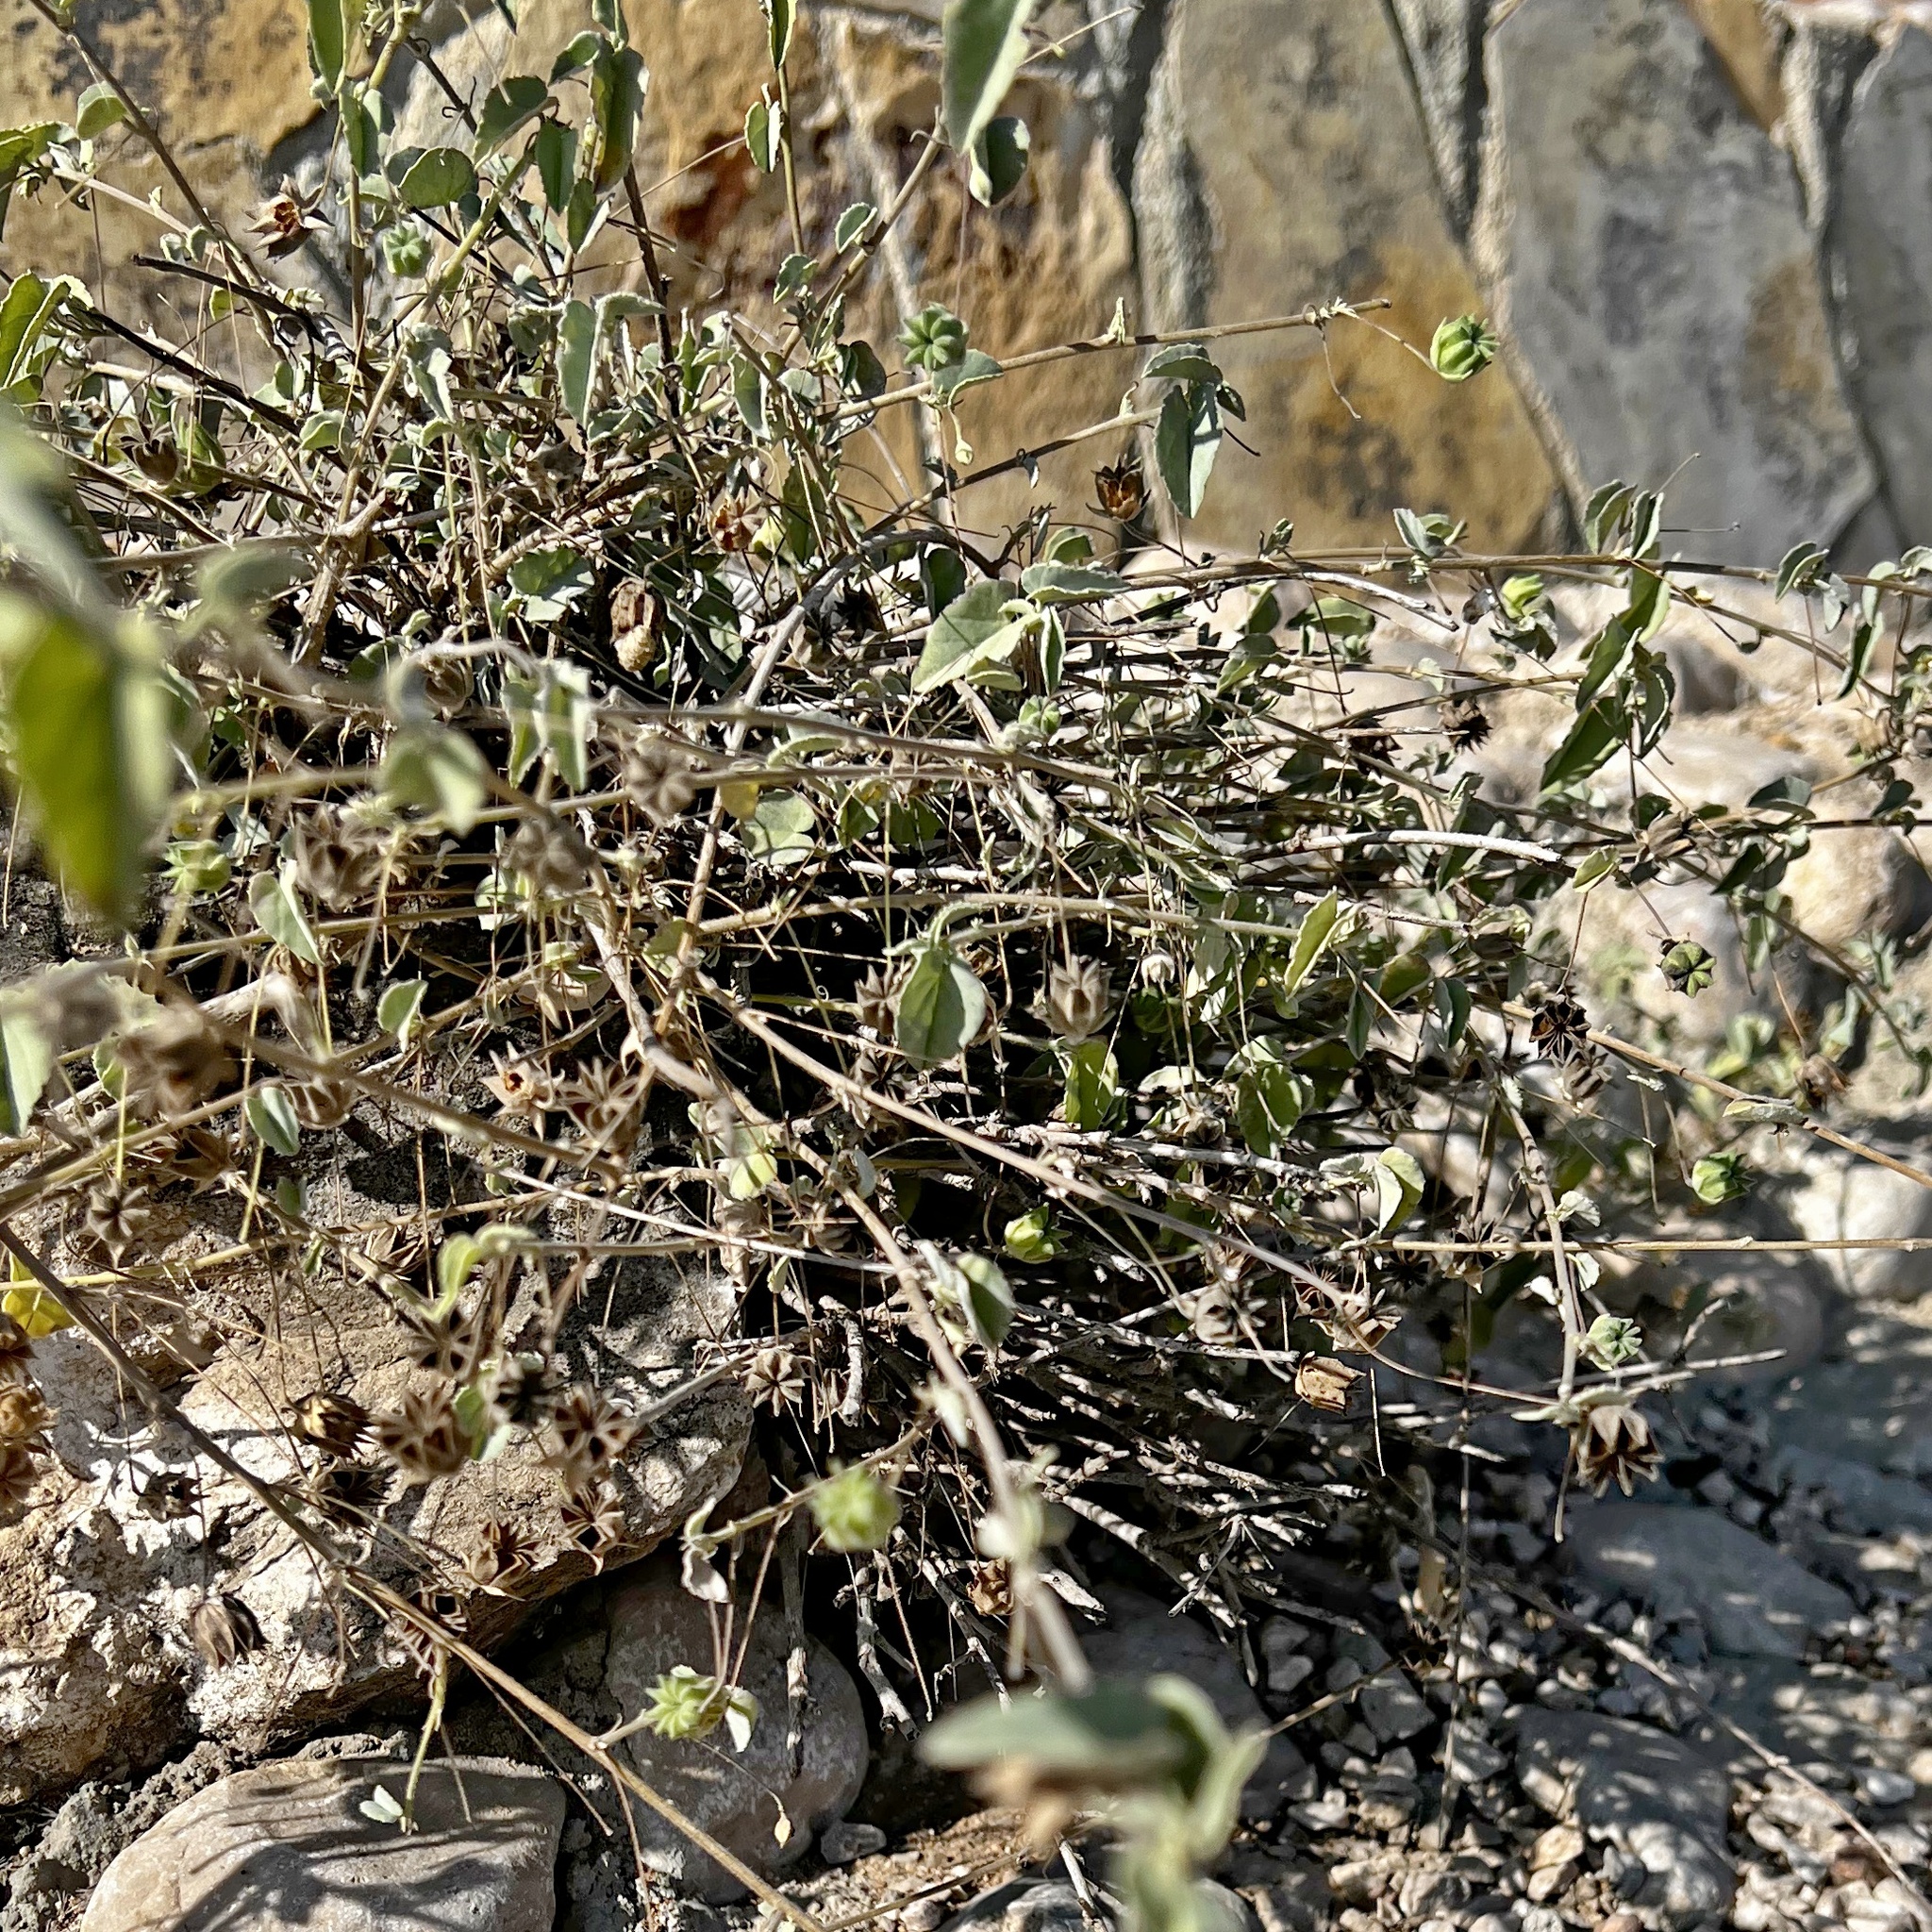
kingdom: Plantae
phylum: Tracheophyta
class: Magnoliopsida
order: Malvales
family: Malvaceae
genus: Abutilon
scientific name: Abutilon fruticosum
